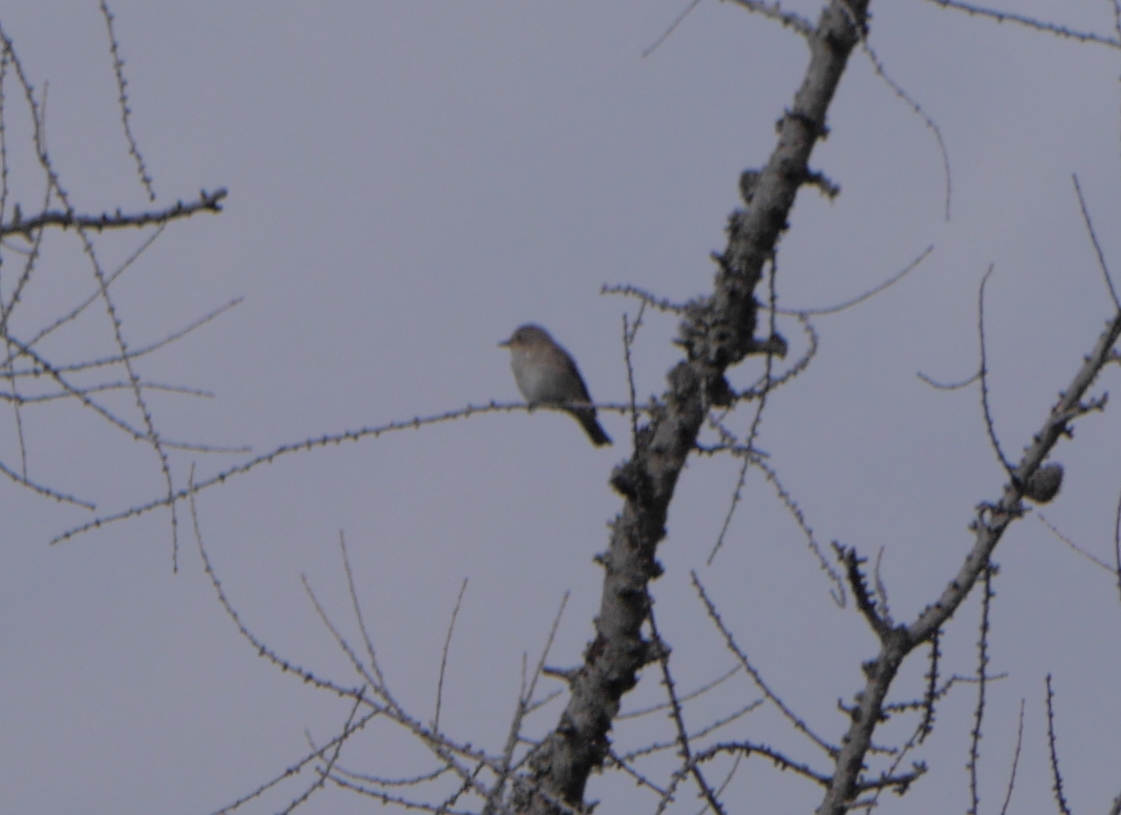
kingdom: Animalia
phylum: Chordata
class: Aves
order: Passeriformes
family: Muscicapidae
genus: Muscicapa
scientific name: Muscicapa striata
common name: Spotted flycatcher
